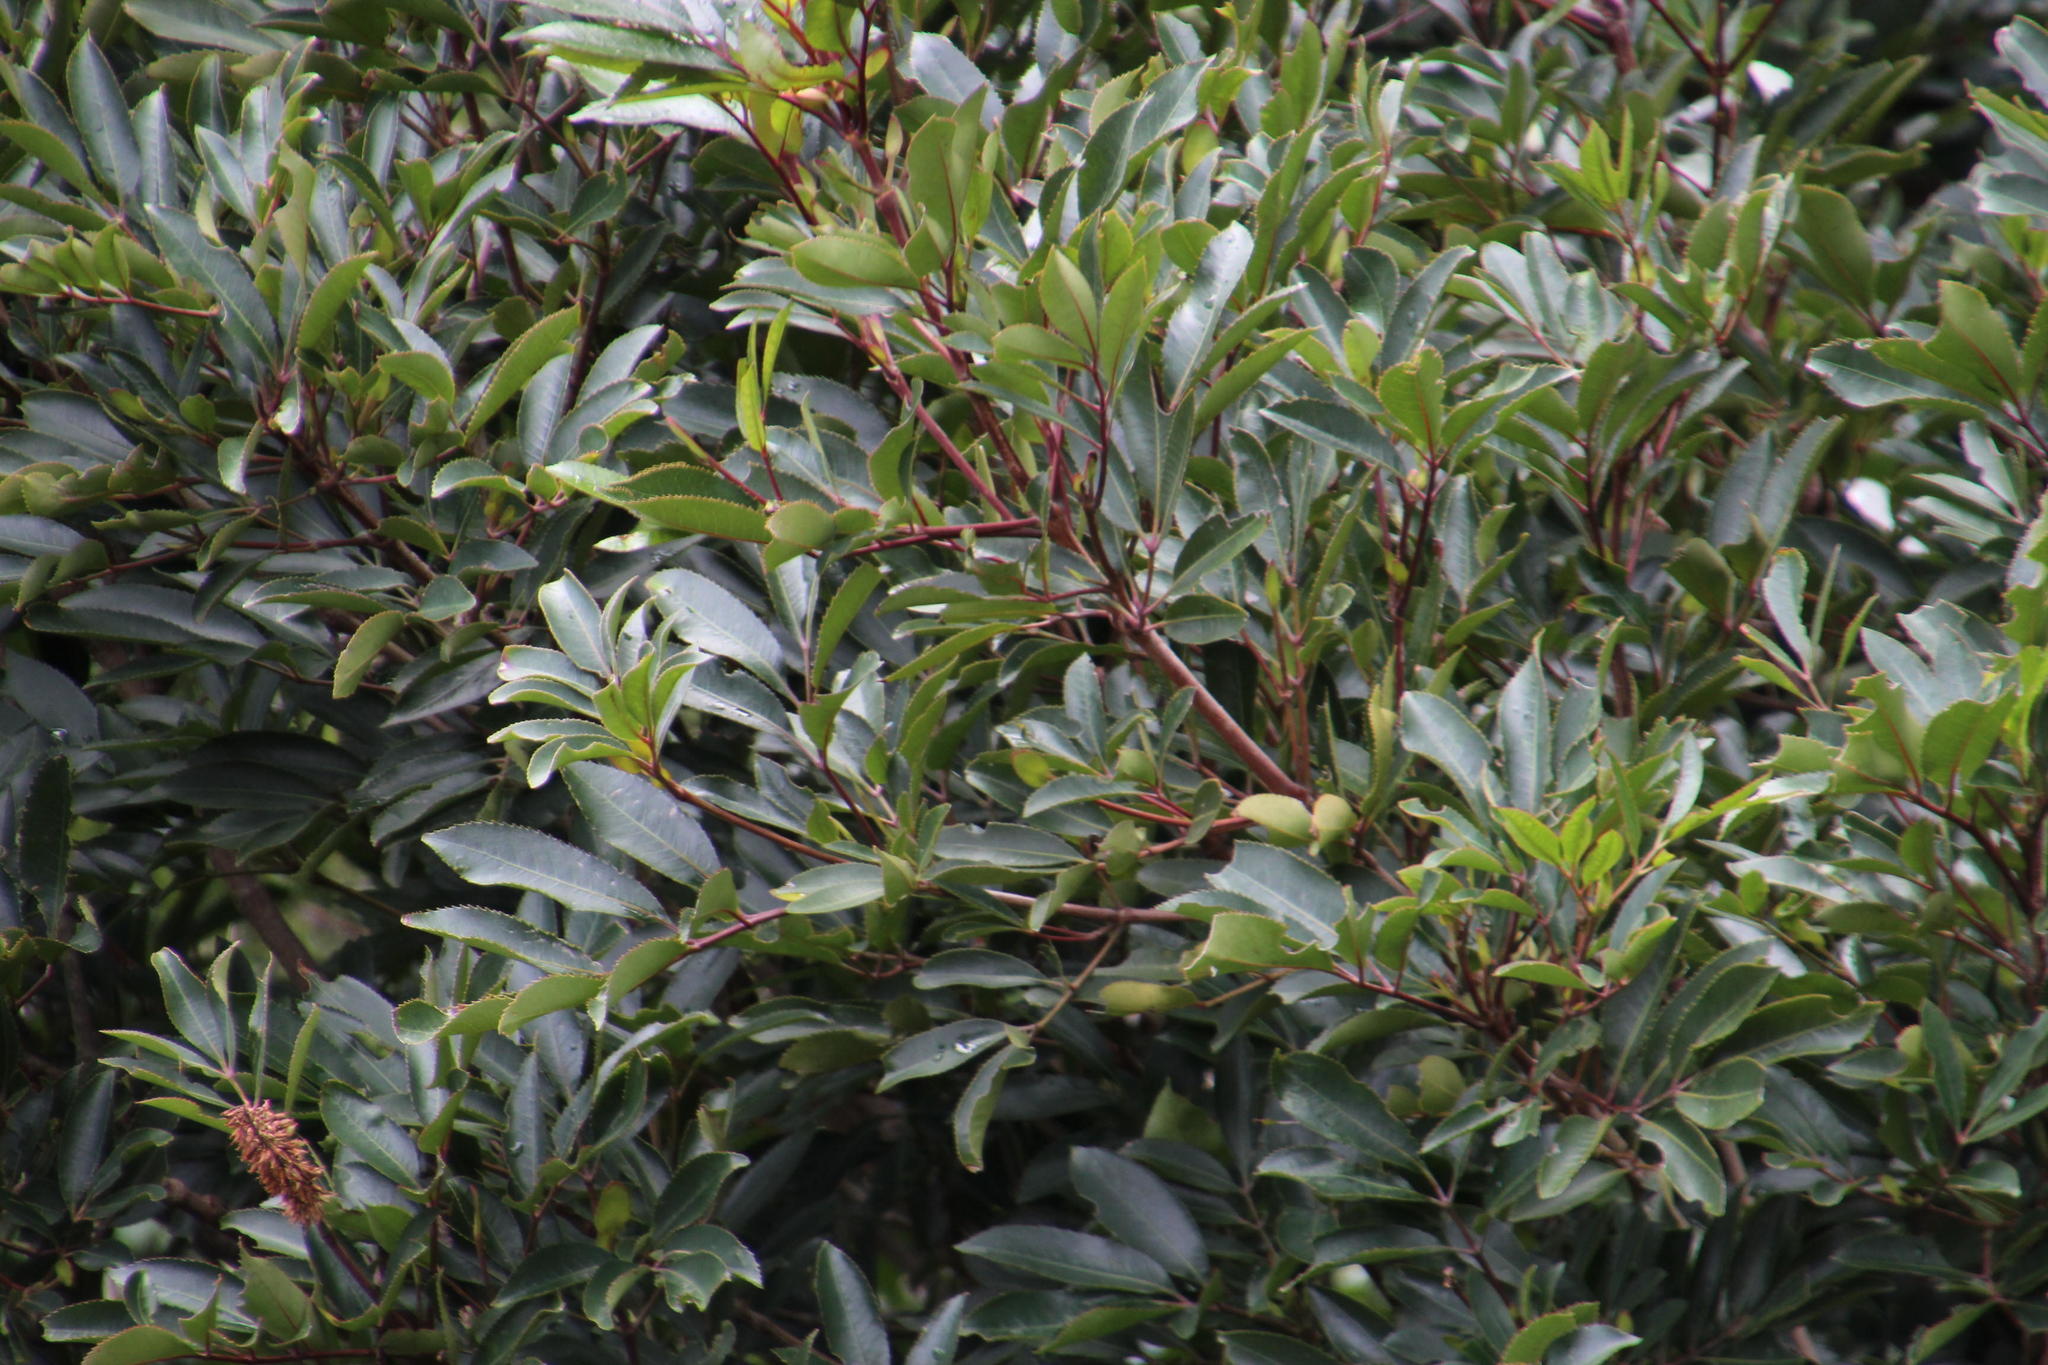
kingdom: Plantae
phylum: Tracheophyta
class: Magnoliopsida
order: Oxalidales
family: Cunoniaceae
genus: Cunonia
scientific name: Cunonia capensis
